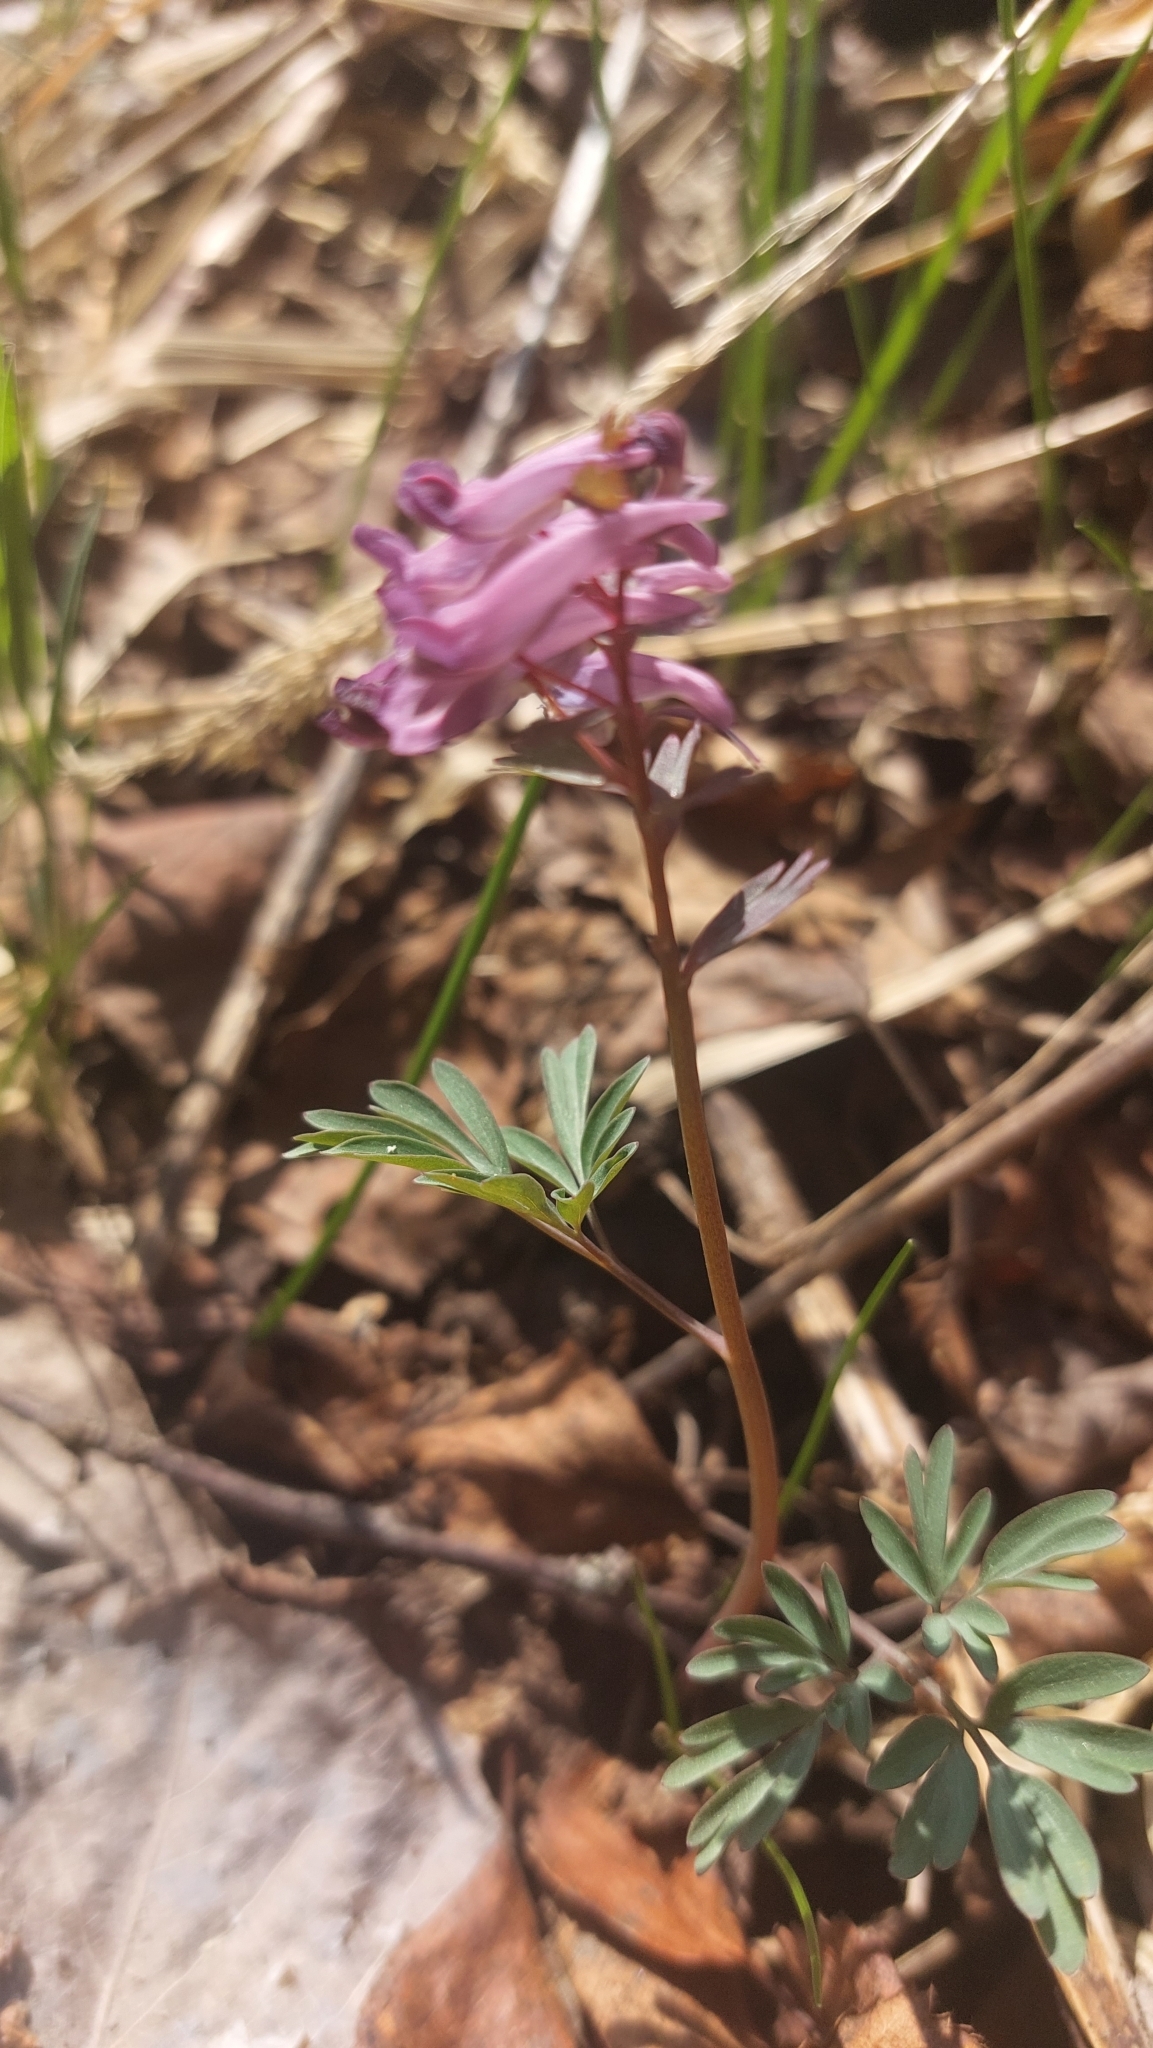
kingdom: Plantae
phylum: Tracheophyta
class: Magnoliopsida
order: Ranunculales
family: Papaveraceae
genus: Corydalis
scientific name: Corydalis solida
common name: Bird-in-a-bush
